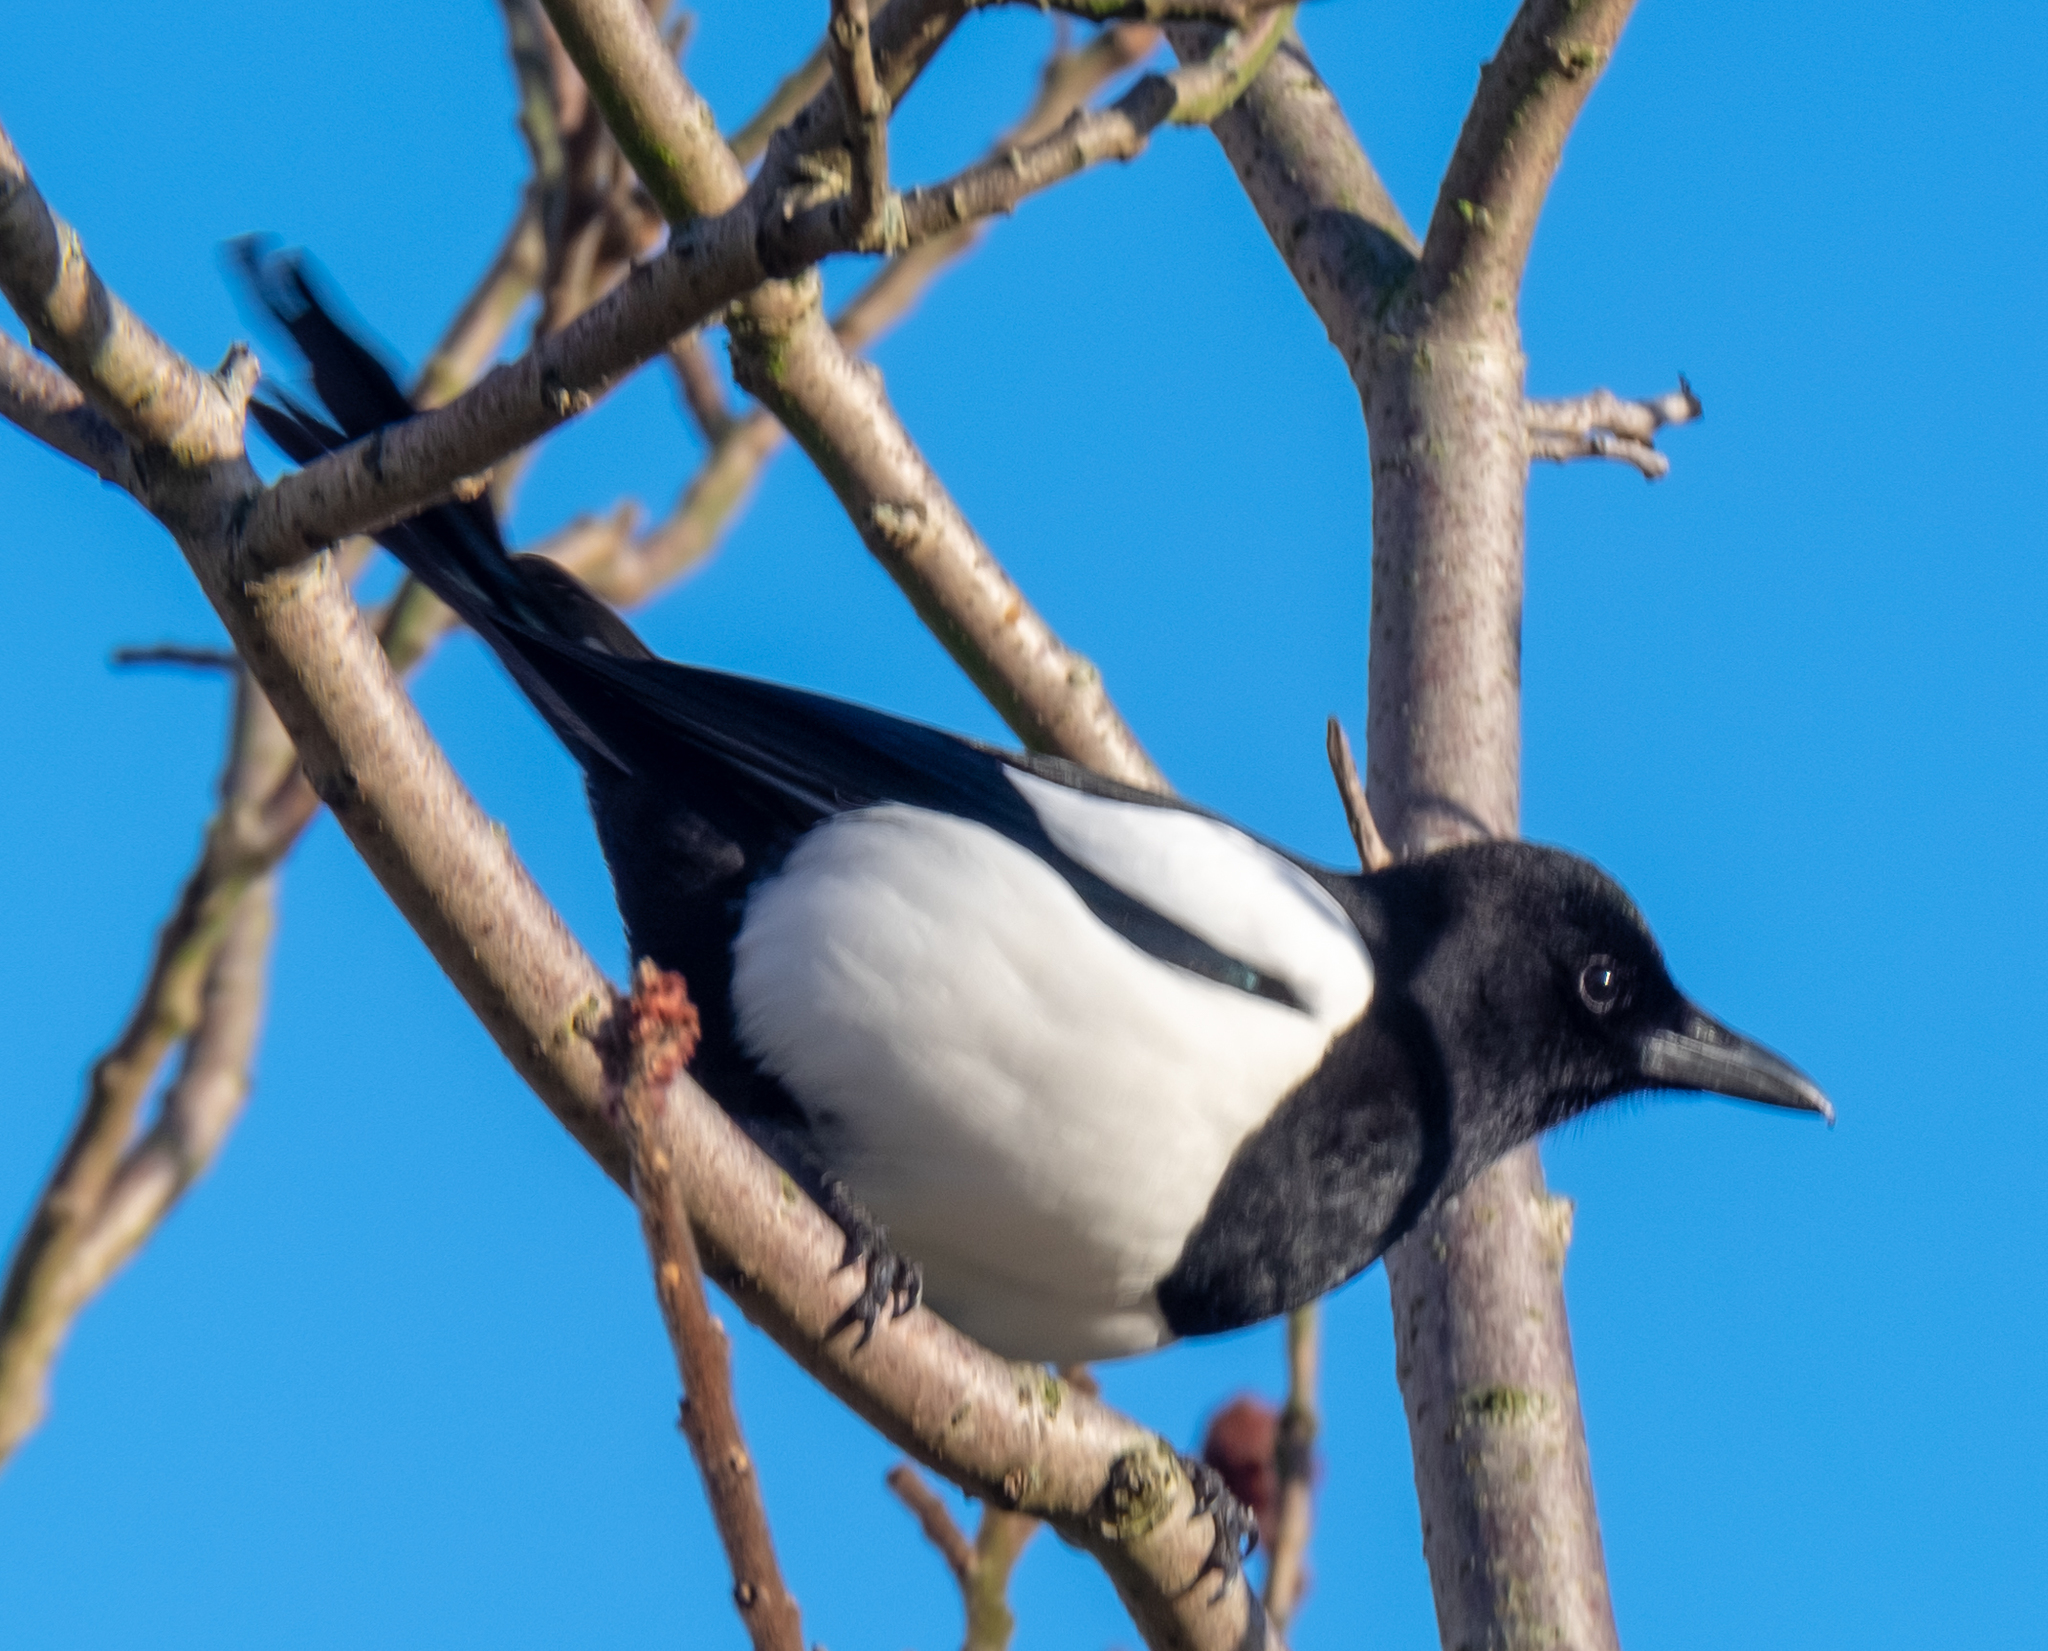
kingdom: Animalia
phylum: Chordata
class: Aves
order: Passeriformes
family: Corvidae
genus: Pica
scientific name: Pica pica
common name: Eurasian magpie
